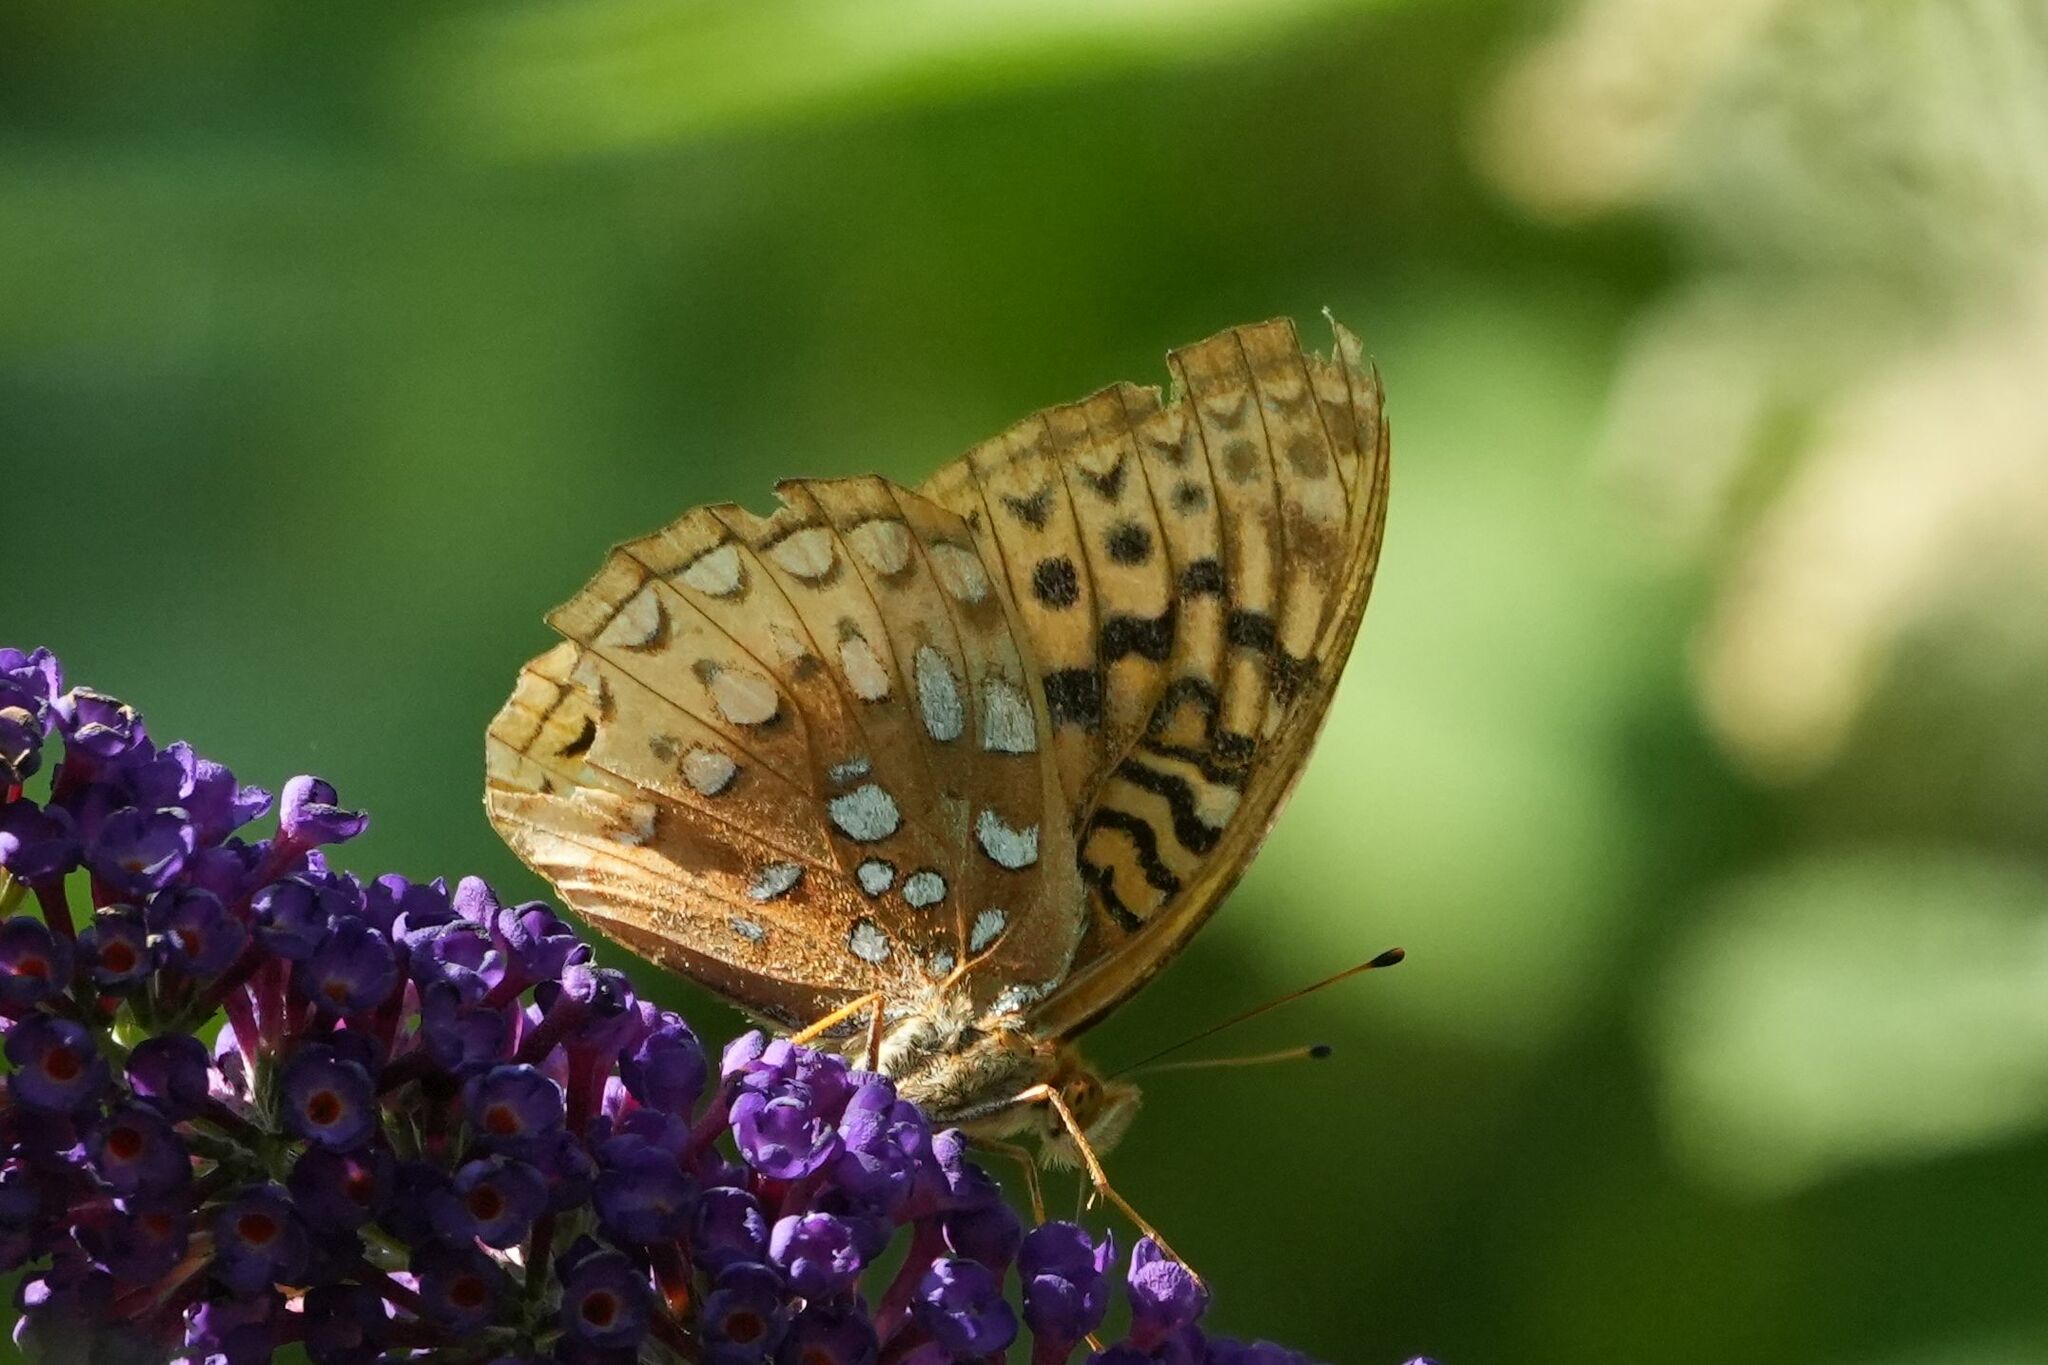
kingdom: Animalia
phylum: Arthropoda
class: Insecta
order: Lepidoptera
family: Nymphalidae
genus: Speyeria
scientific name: Speyeria cybele
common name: Great spangled fritillary
